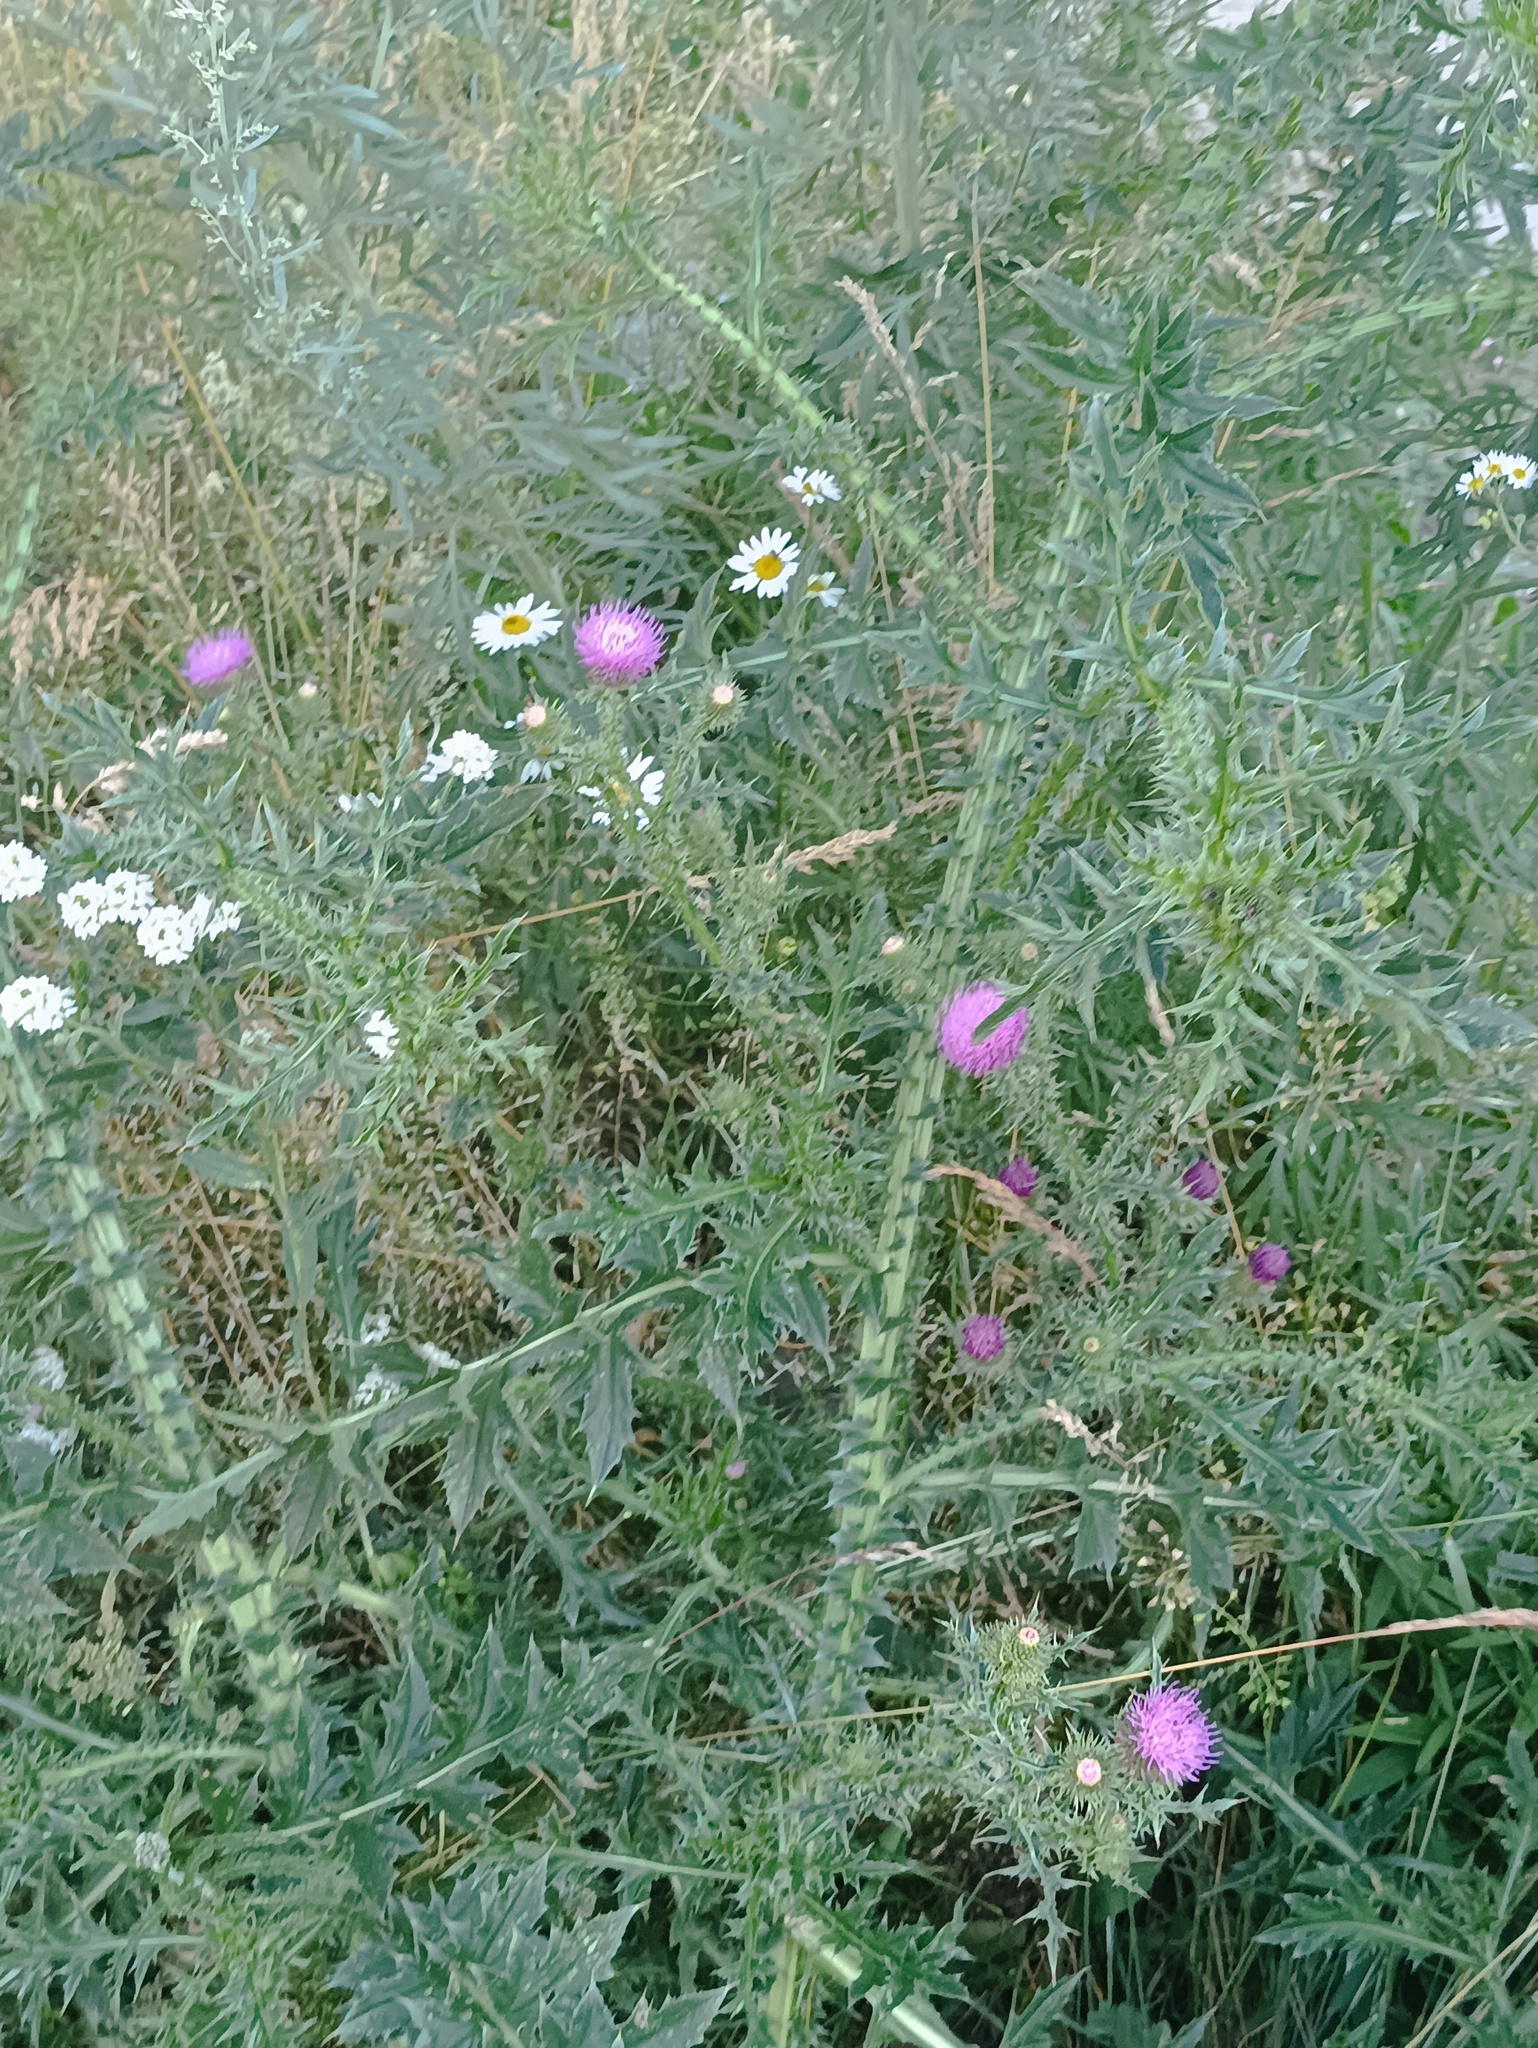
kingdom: Plantae
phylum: Tracheophyta
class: Magnoliopsida
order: Asterales
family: Asteraceae
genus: Carduus
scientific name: Carduus acanthoides
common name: Plumeless thistle
